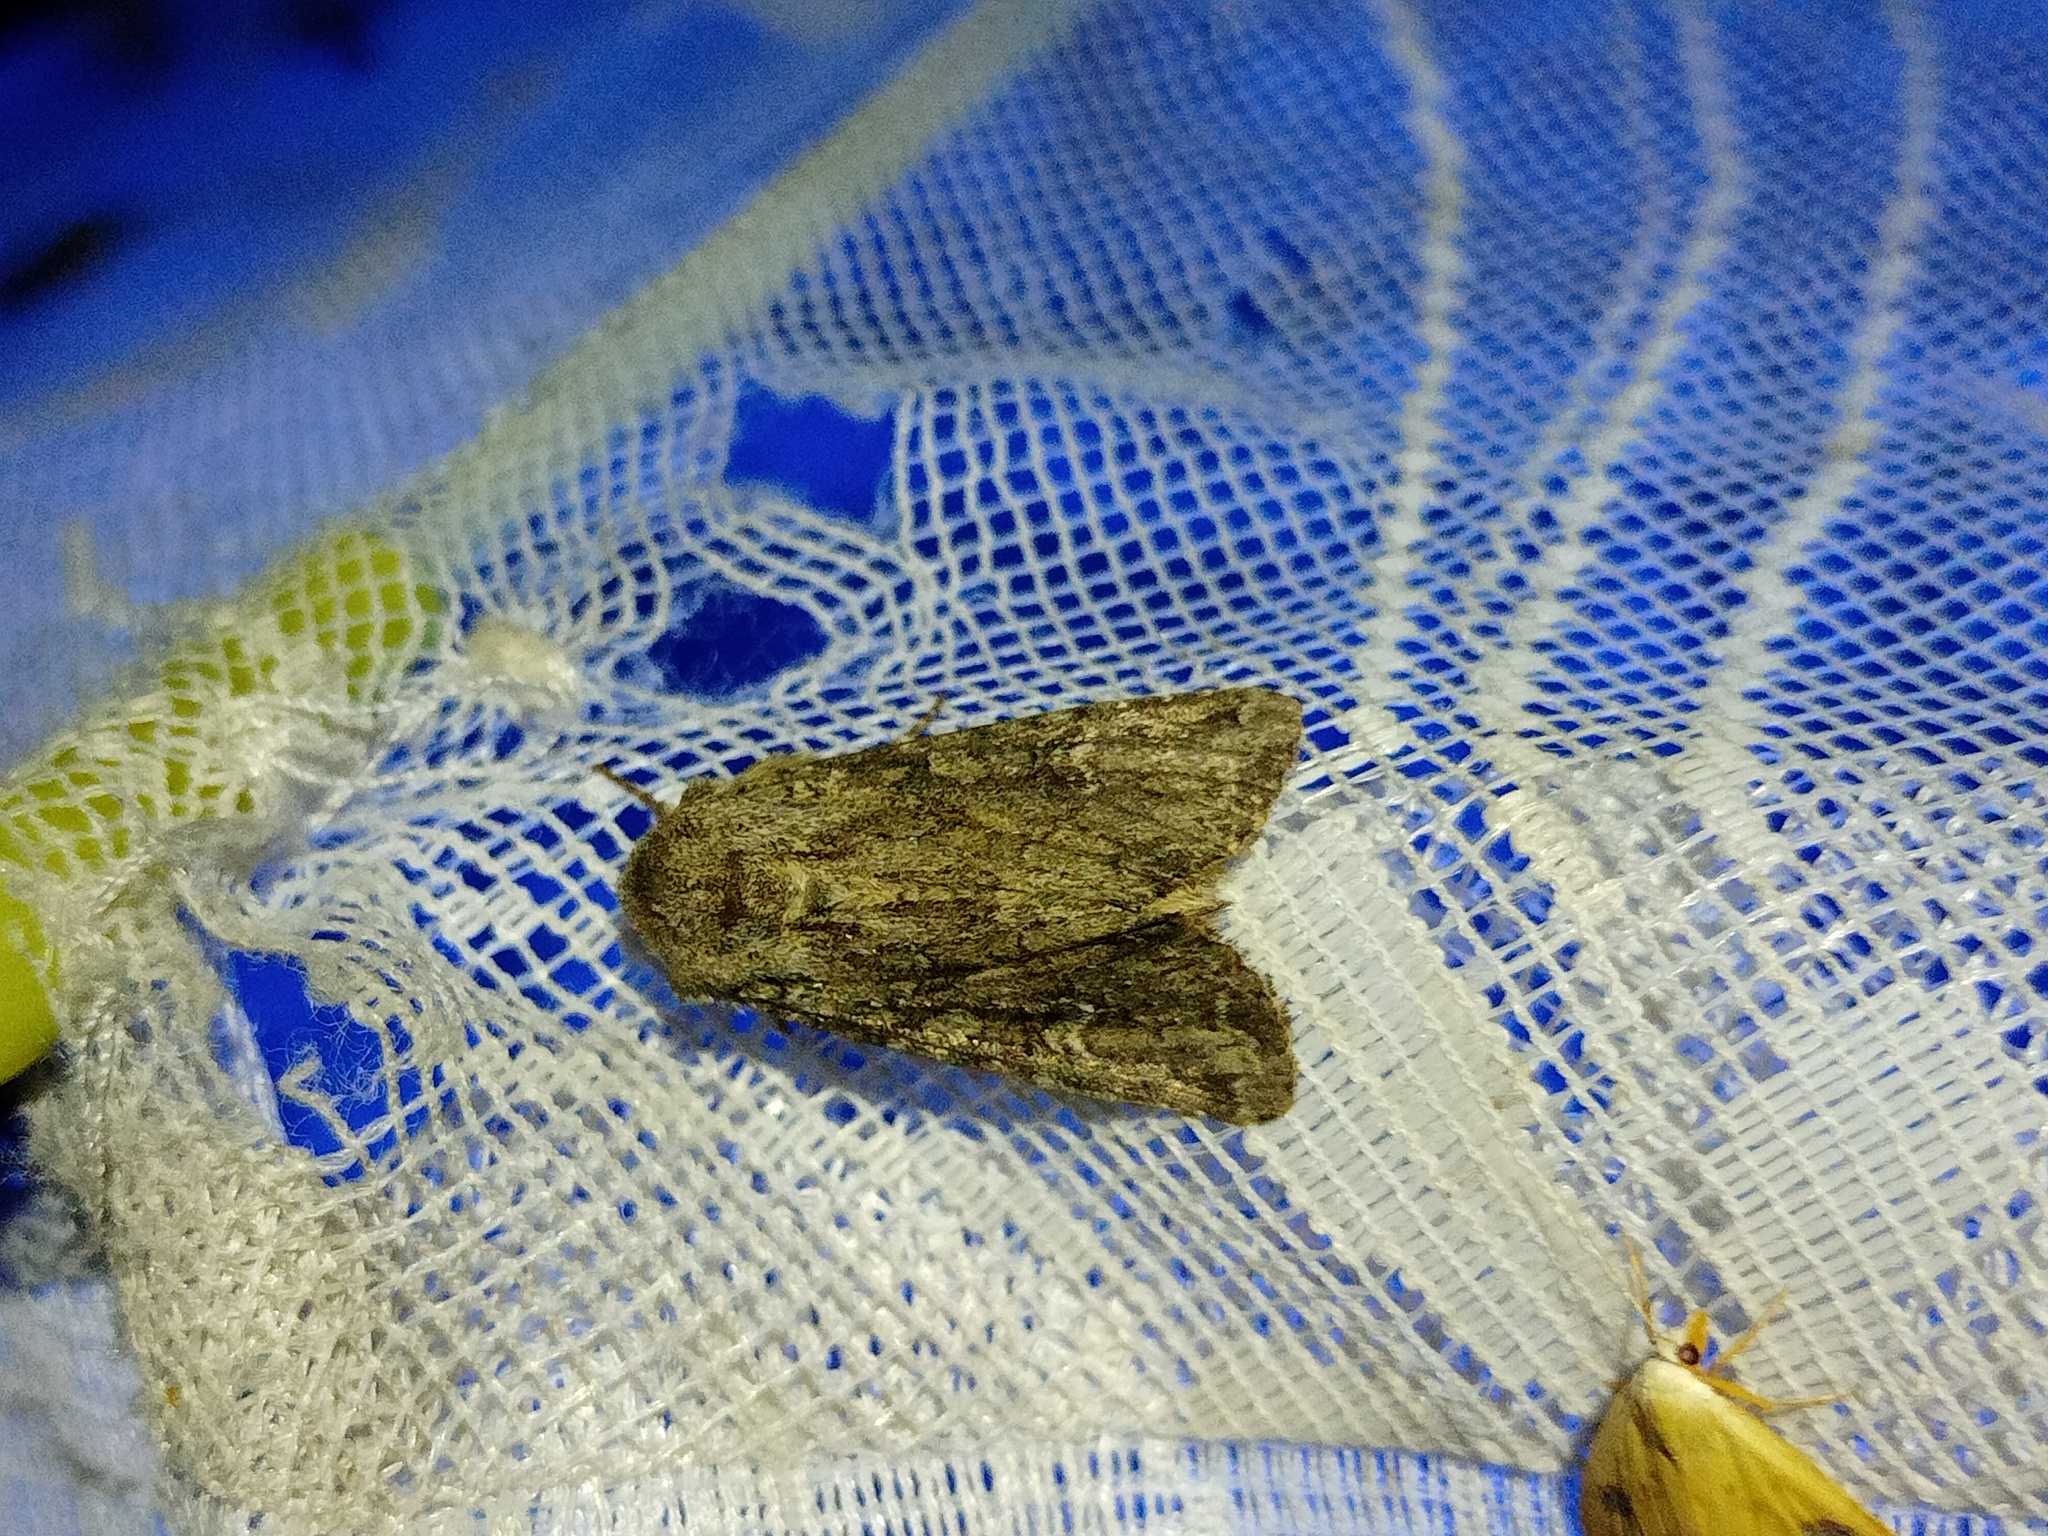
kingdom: Animalia
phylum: Arthropoda
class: Insecta
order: Lepidoptera
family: Noctuidae
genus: Apamea
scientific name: Apamea anceps
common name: Large nutmeg
